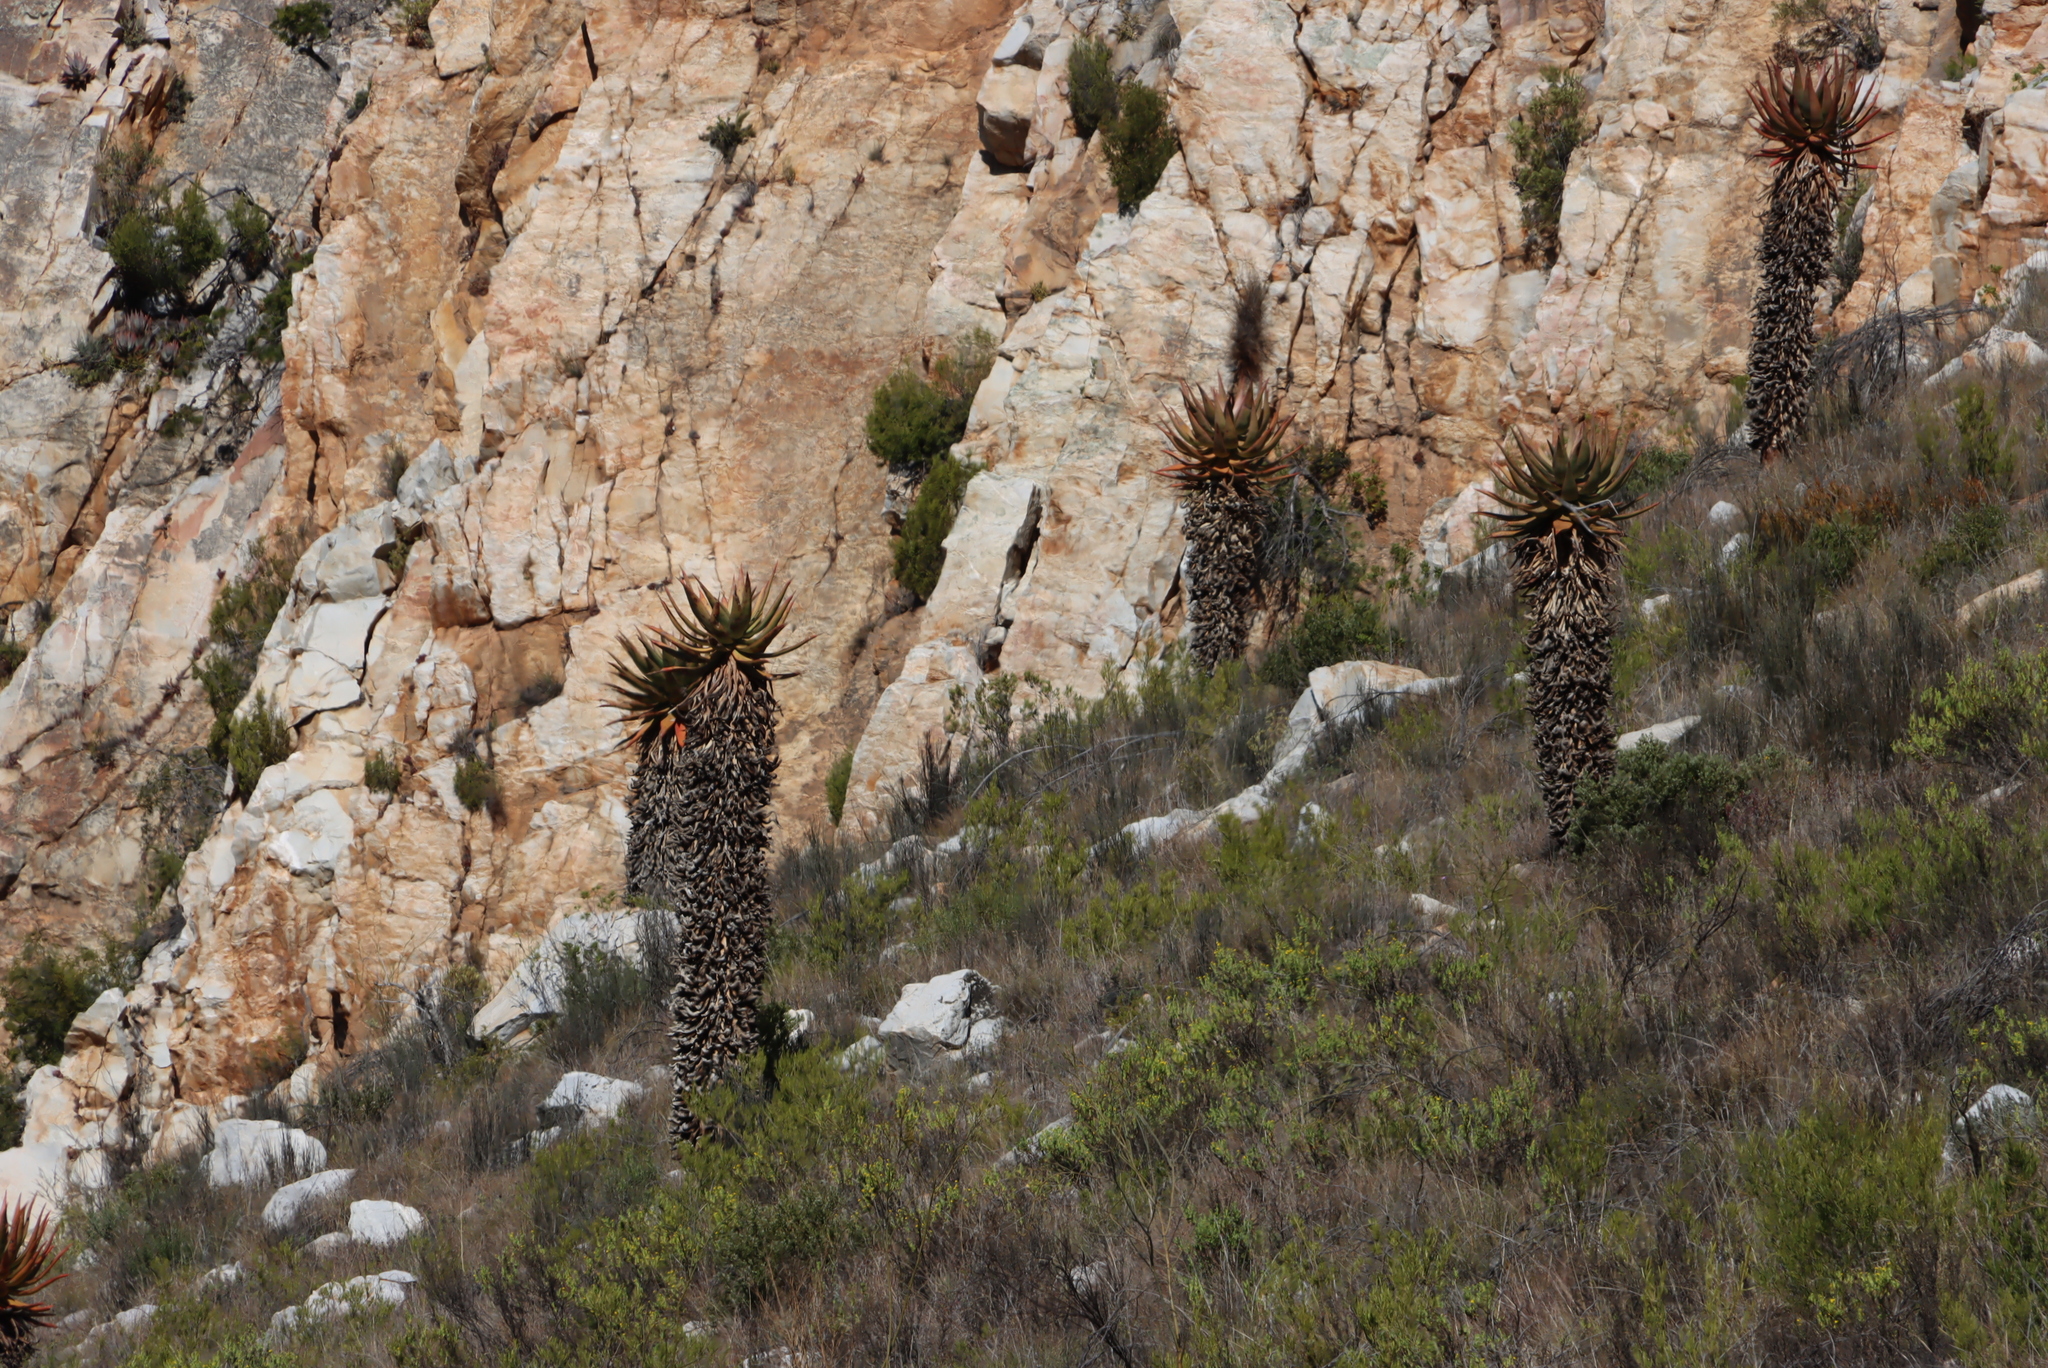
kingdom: Plantae
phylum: Tracheophyta
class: Liliopsida
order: Asparagales
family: Asphodelaceae
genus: Aloe
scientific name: Aloe ferox
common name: Bitter aloe
